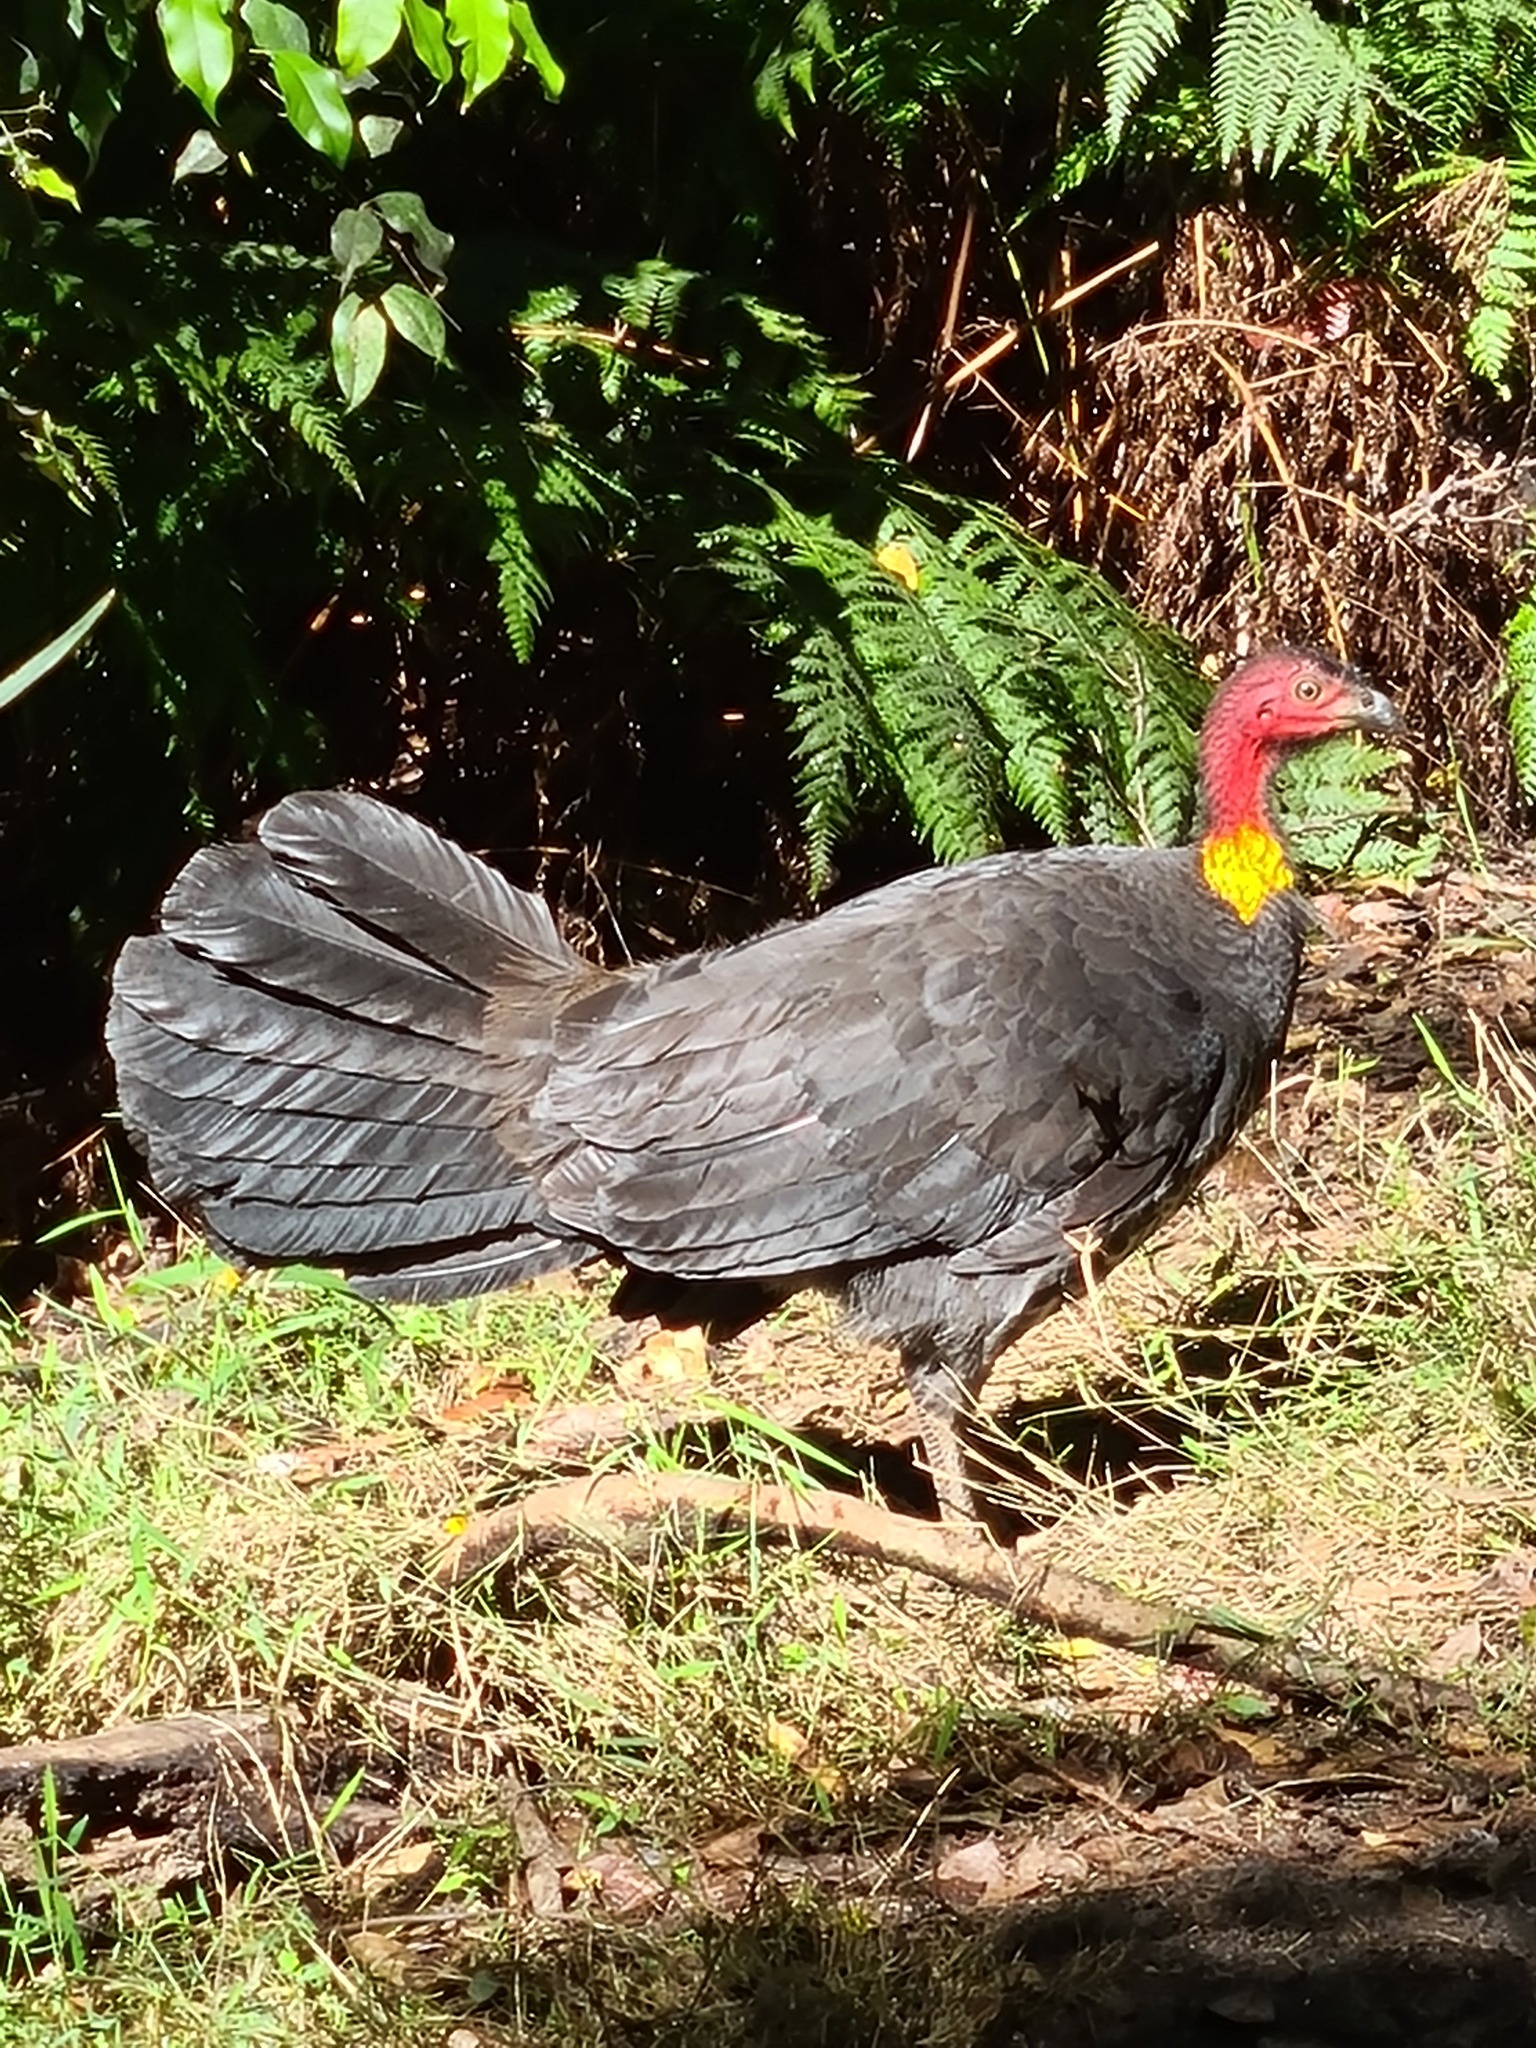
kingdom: Animalia
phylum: Chordata
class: Aves
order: Galliformes
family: Megapodiidae
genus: Alectura
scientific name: Alectura lathami
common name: Australian brushturkey
